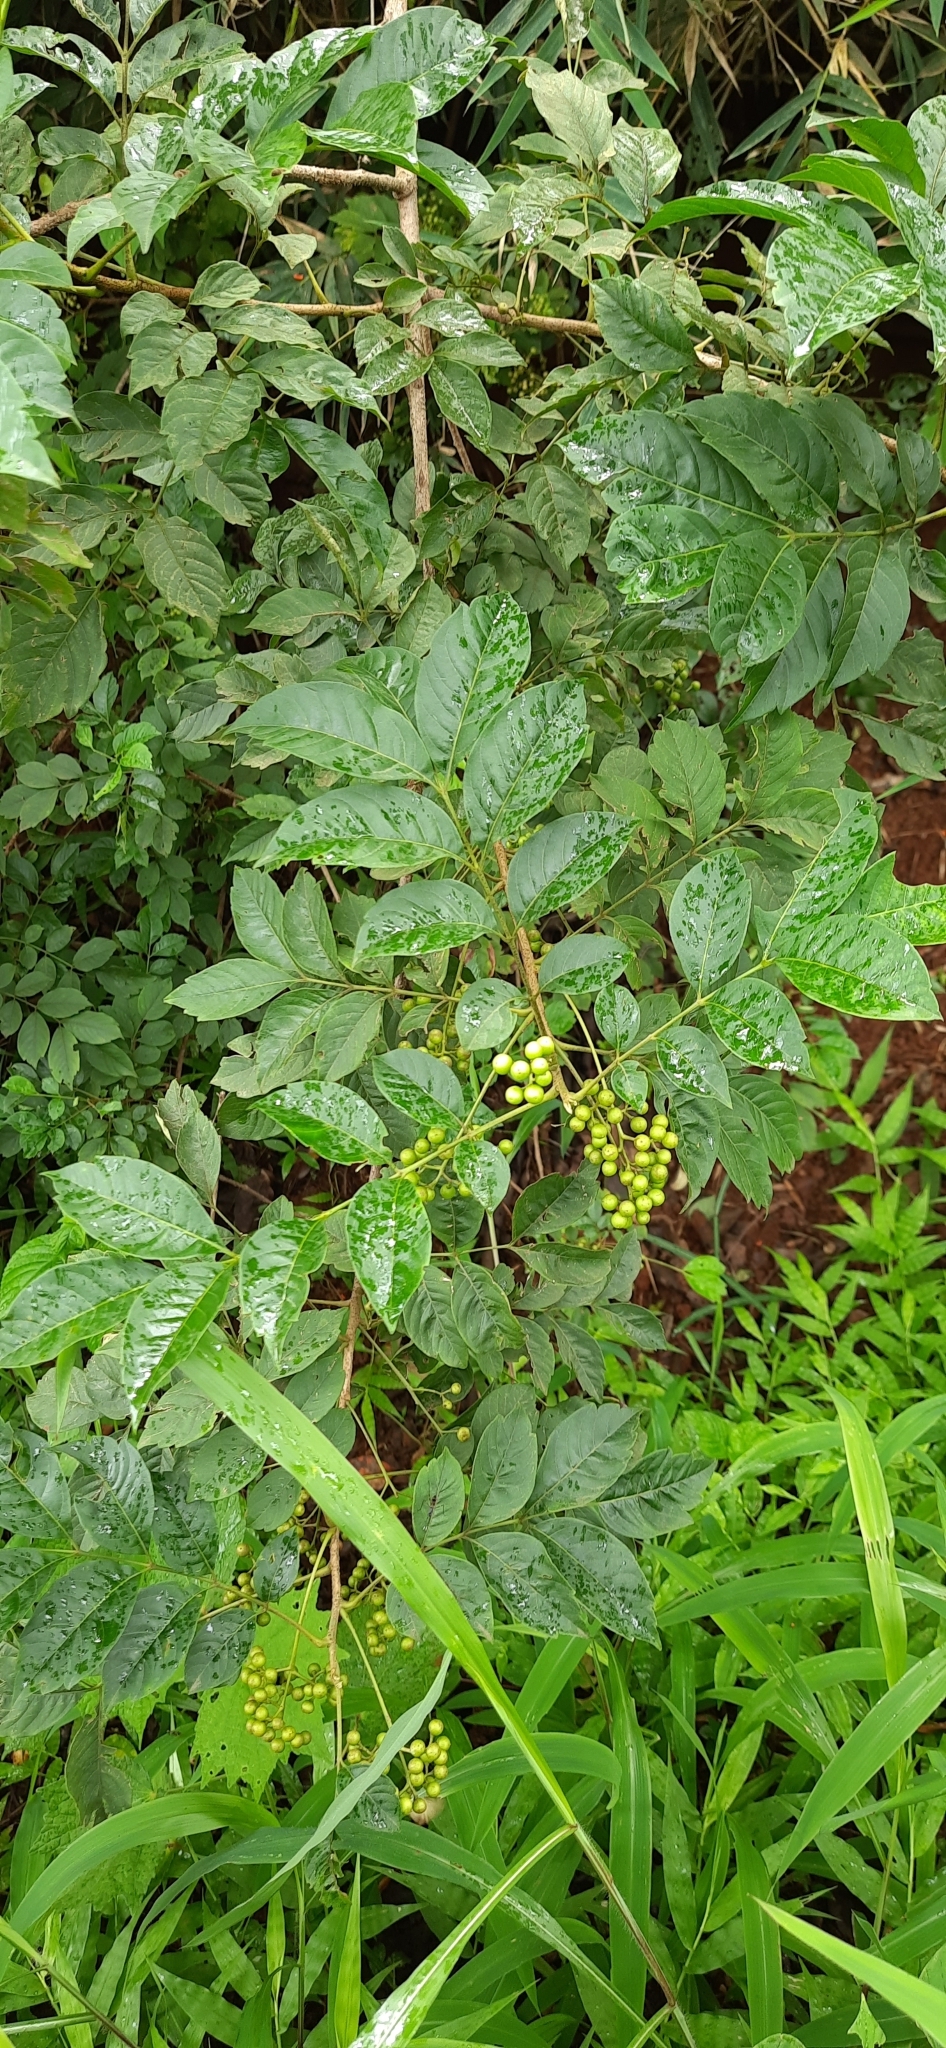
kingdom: Plantae
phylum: Tracheophyta
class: Magnoliopsida
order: Sapindales
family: Meliaceae
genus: Cipadessa
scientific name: Cipadessa baccifera
